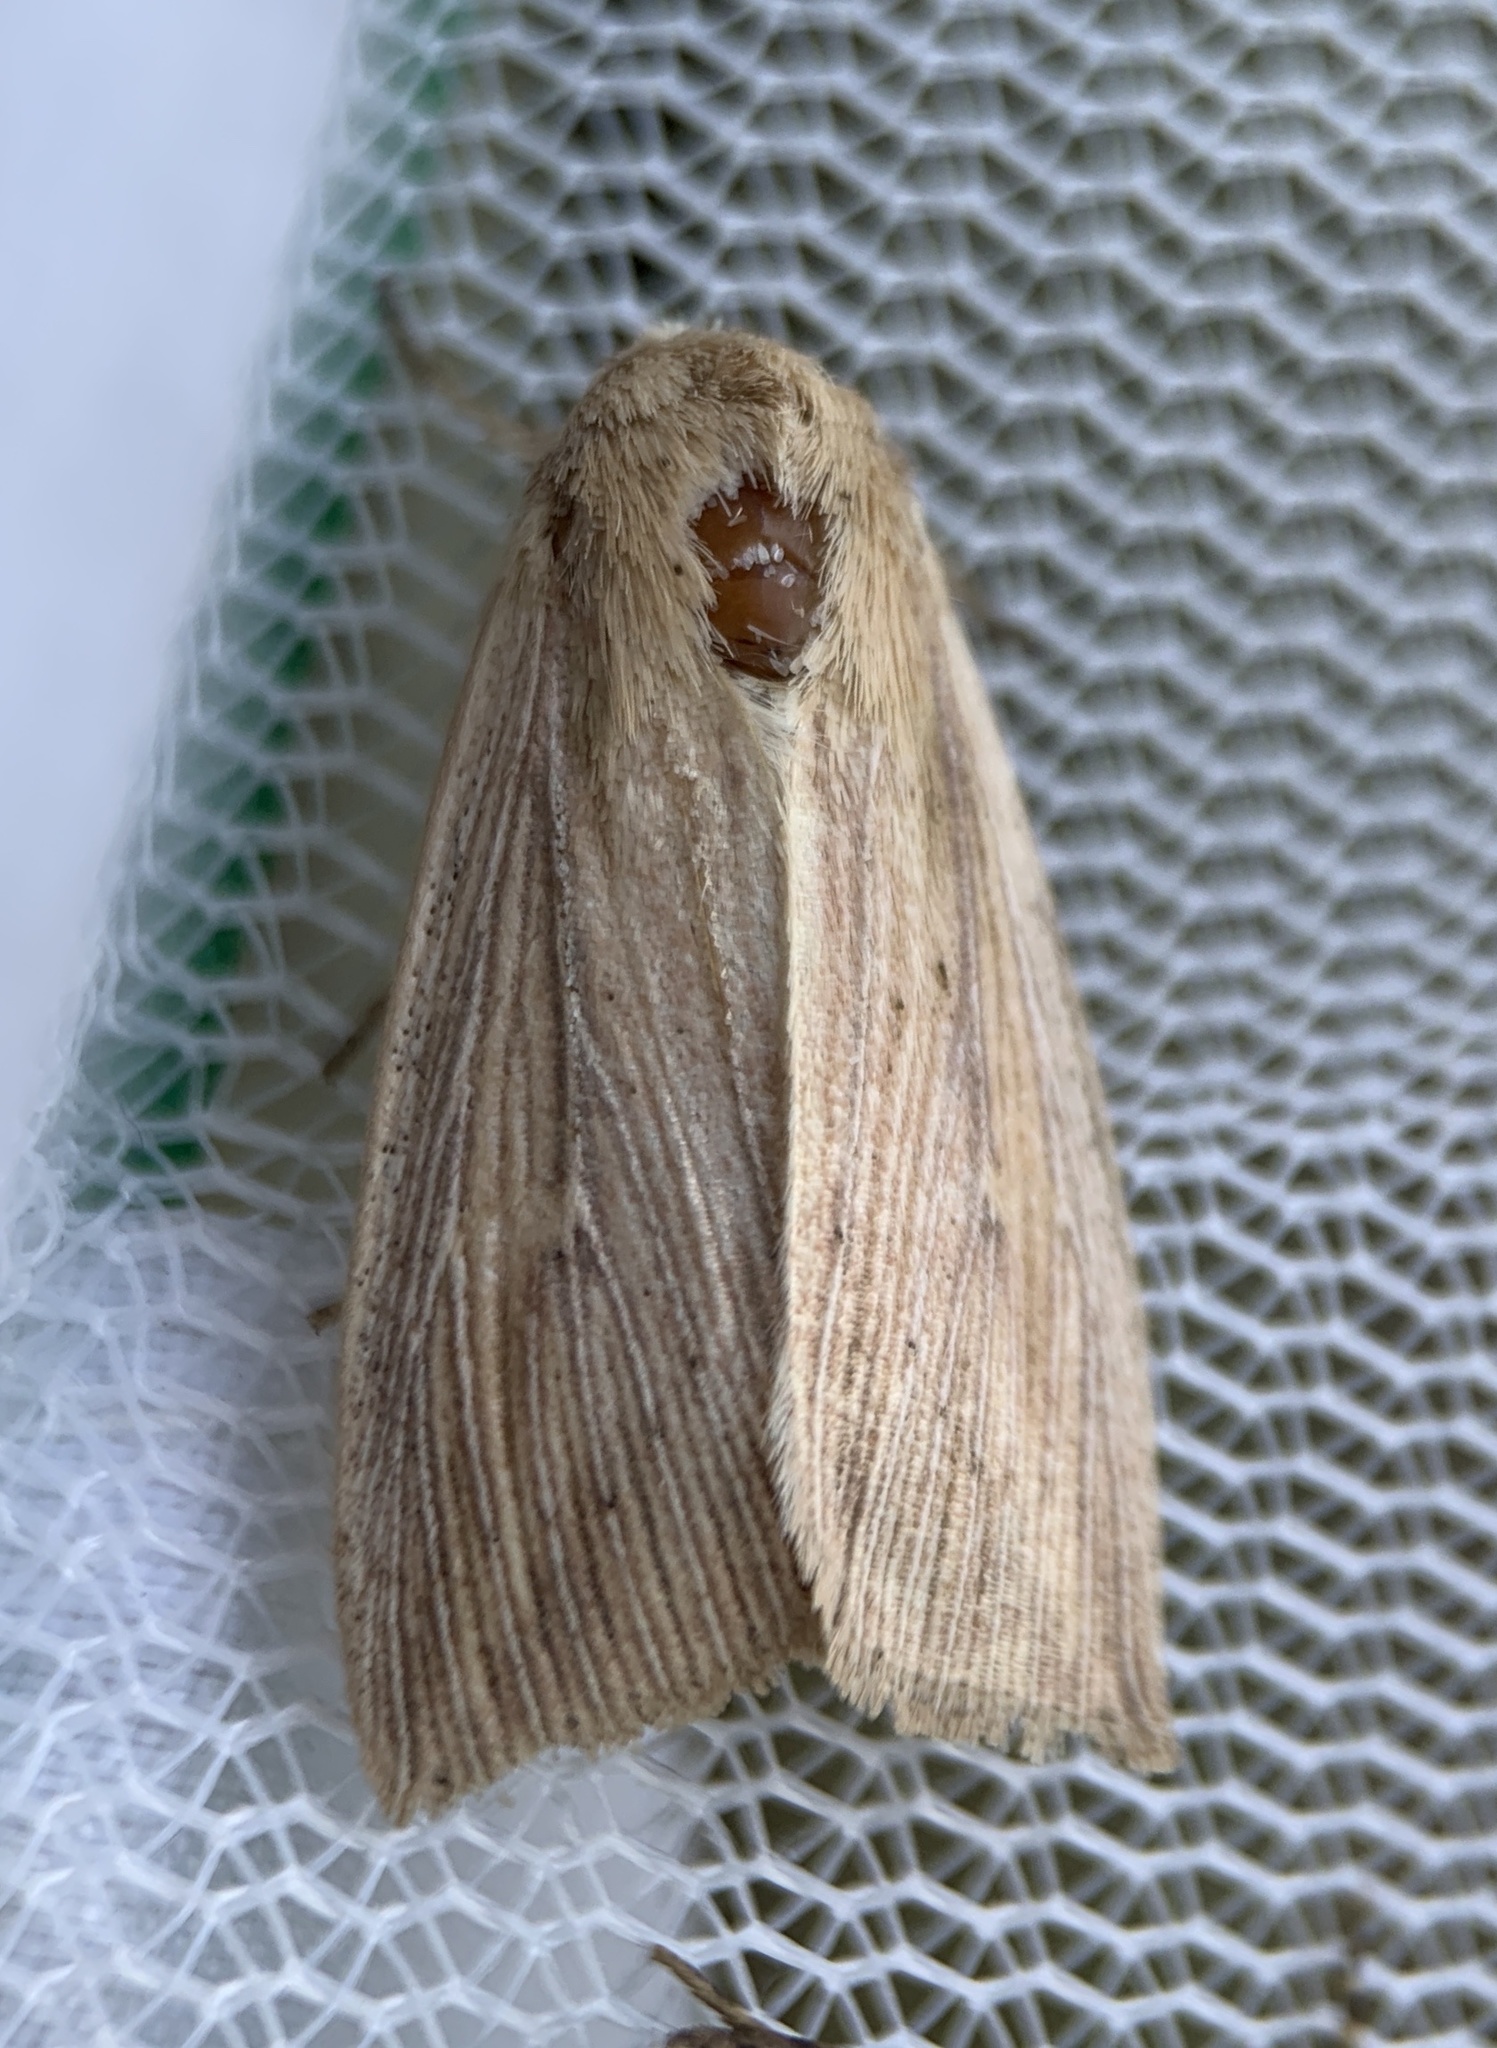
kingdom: Animalia
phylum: Arthropoda
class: Insecta
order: Lepidoptera
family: Noctuidae
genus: Leucania
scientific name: Leucania linita
